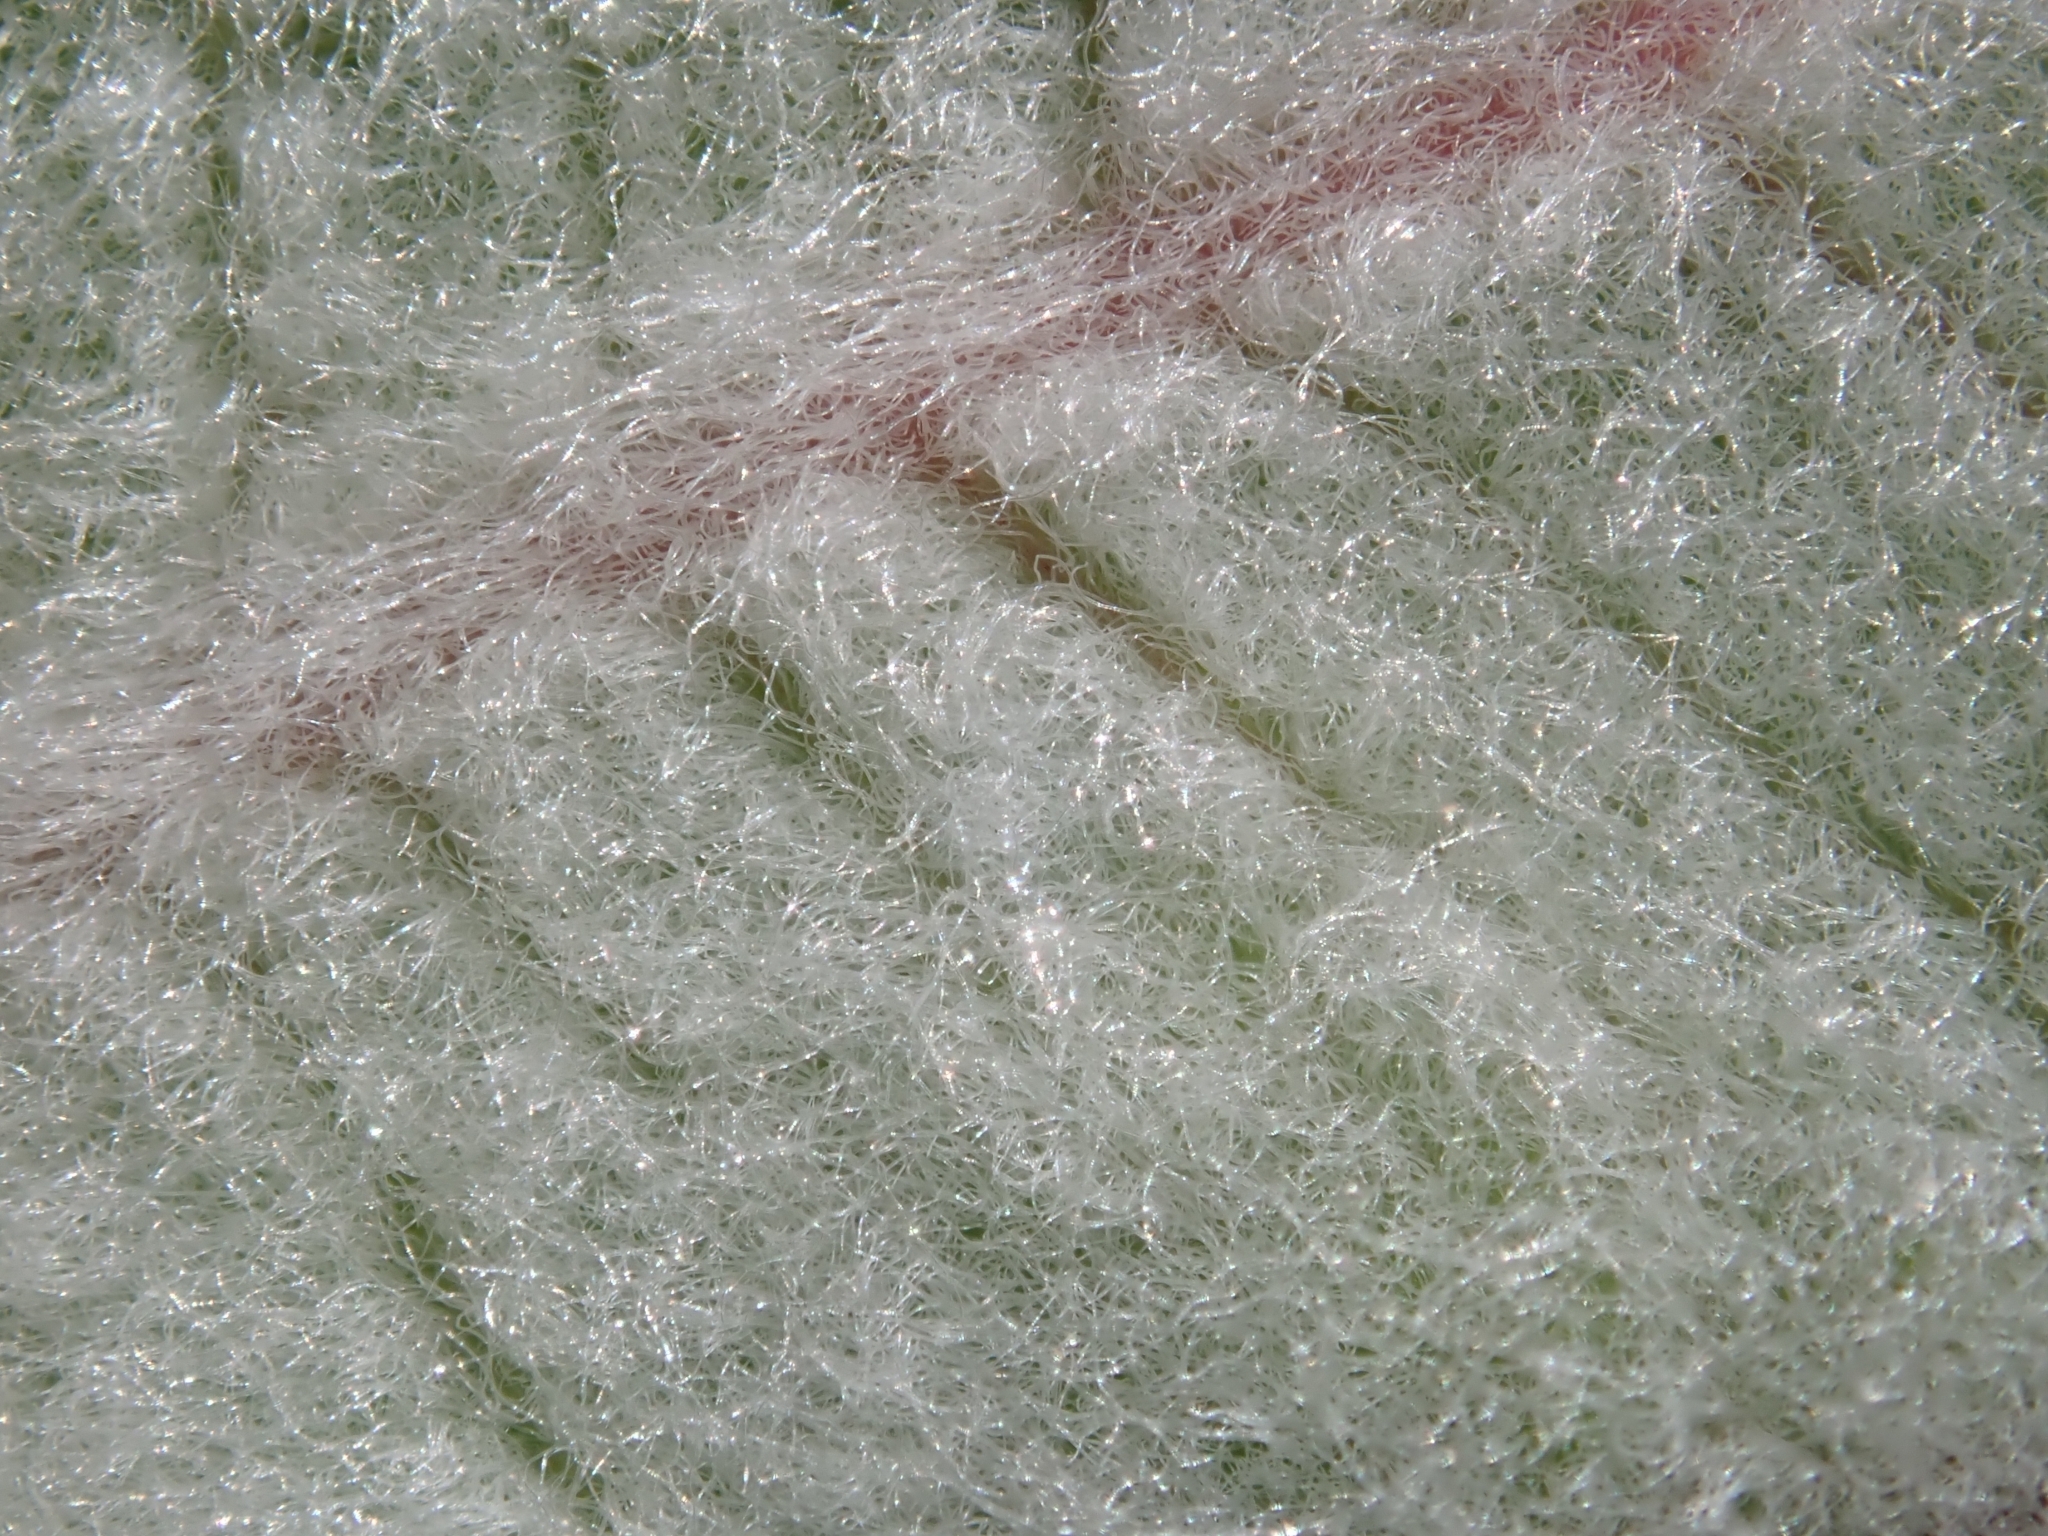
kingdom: Plantae
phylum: Tracheophyta
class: Magnoliopsida
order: Gentianales
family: Apocynaceae
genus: Asclepias
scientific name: Asclepias eriocarpa
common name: Indian milkweed
